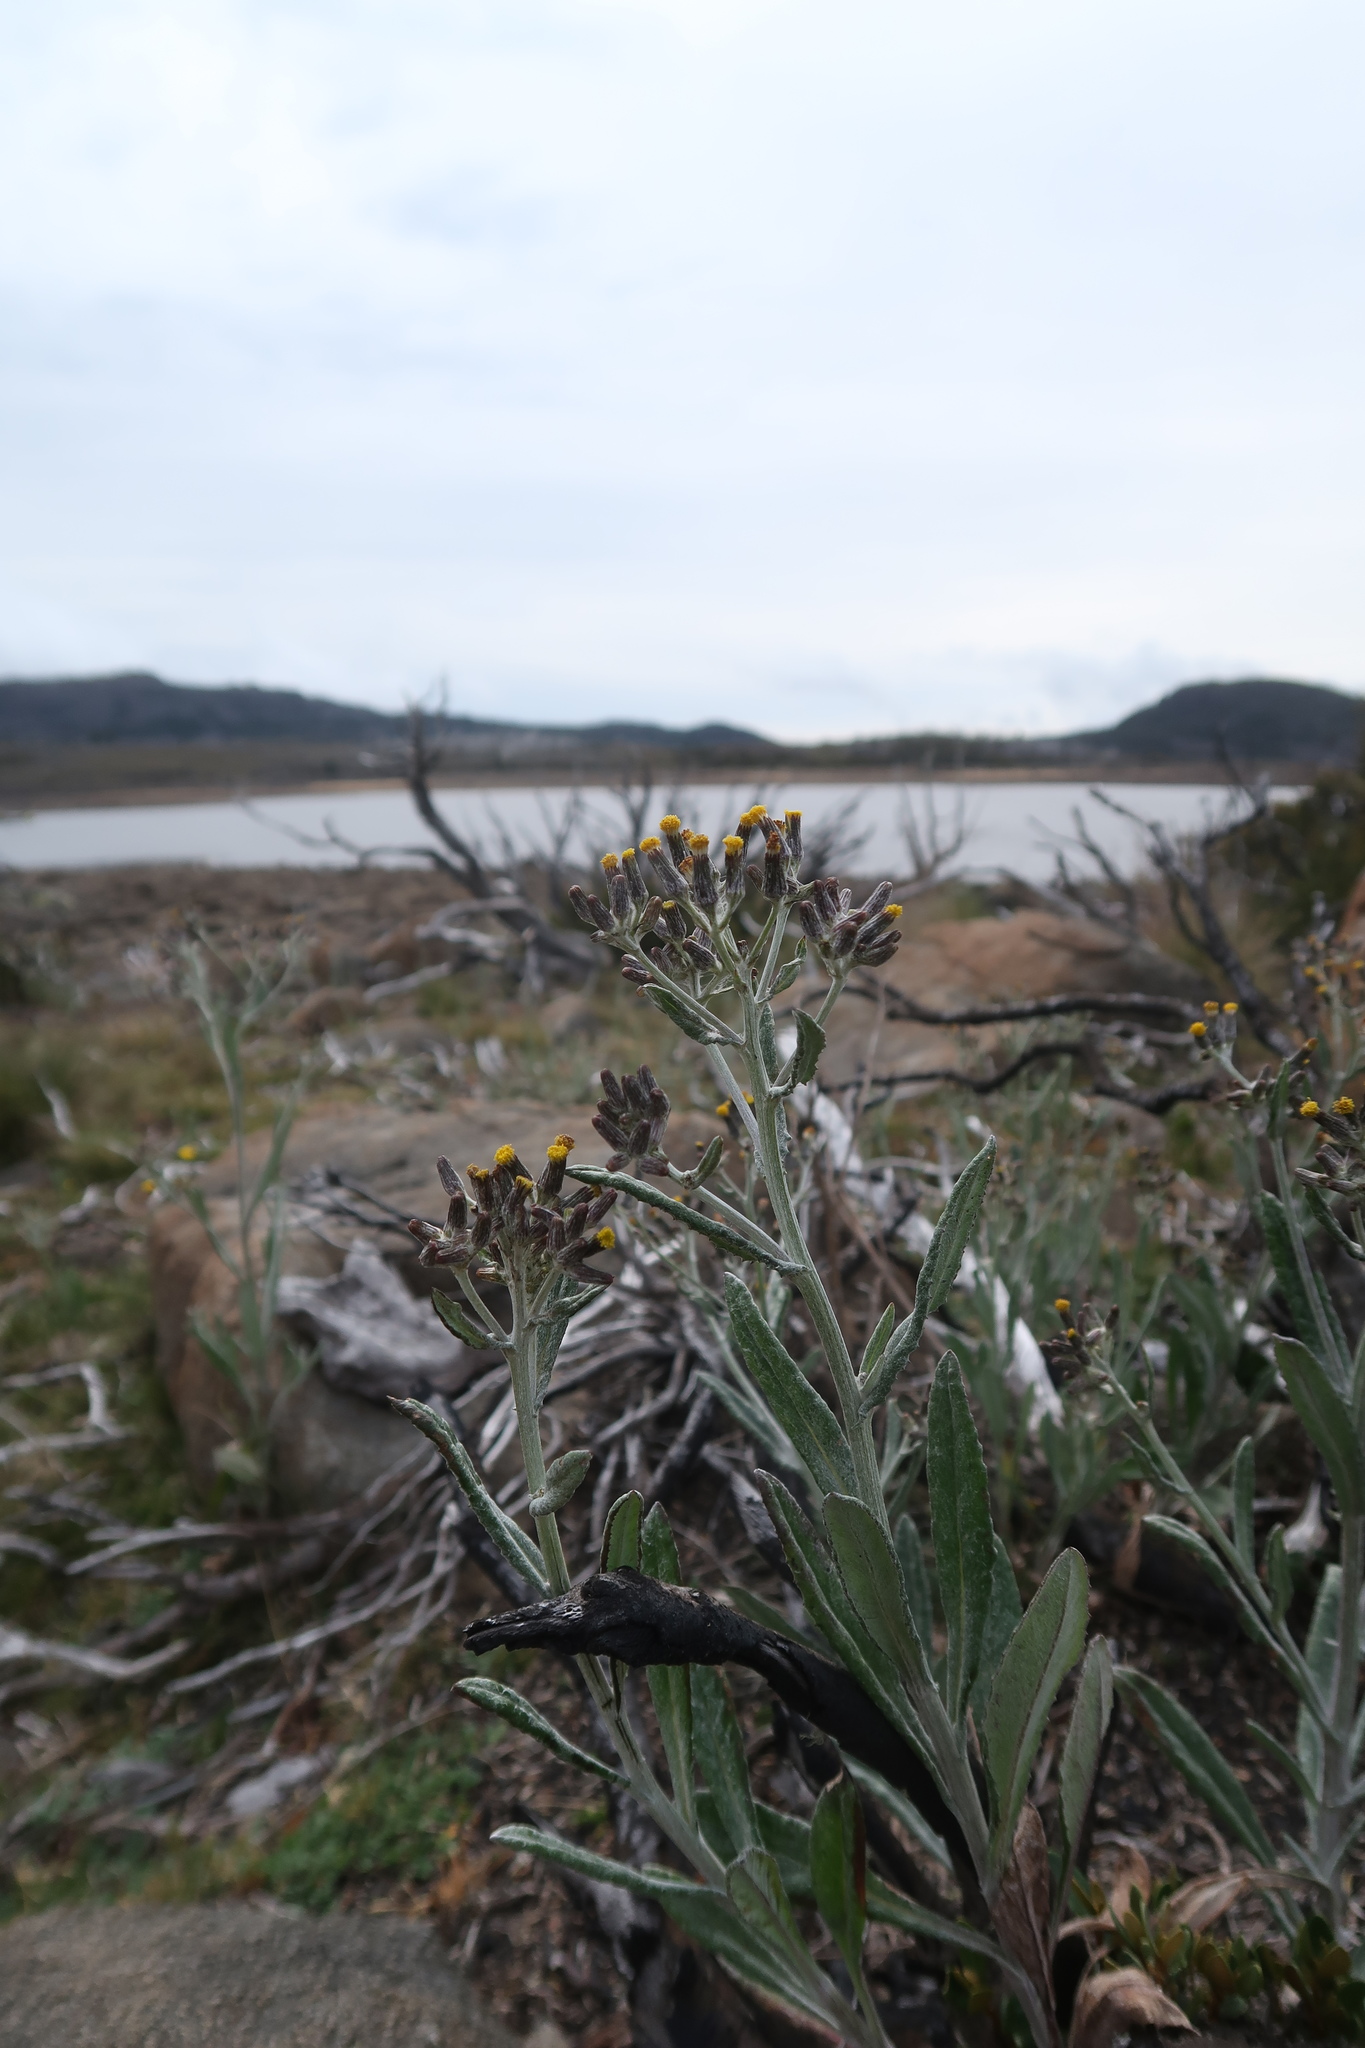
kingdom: Plantae
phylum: Tracheophyta
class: Magnoliopsida
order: Asterales
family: Asteraceae
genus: Senecio
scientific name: Senecio gunnii
